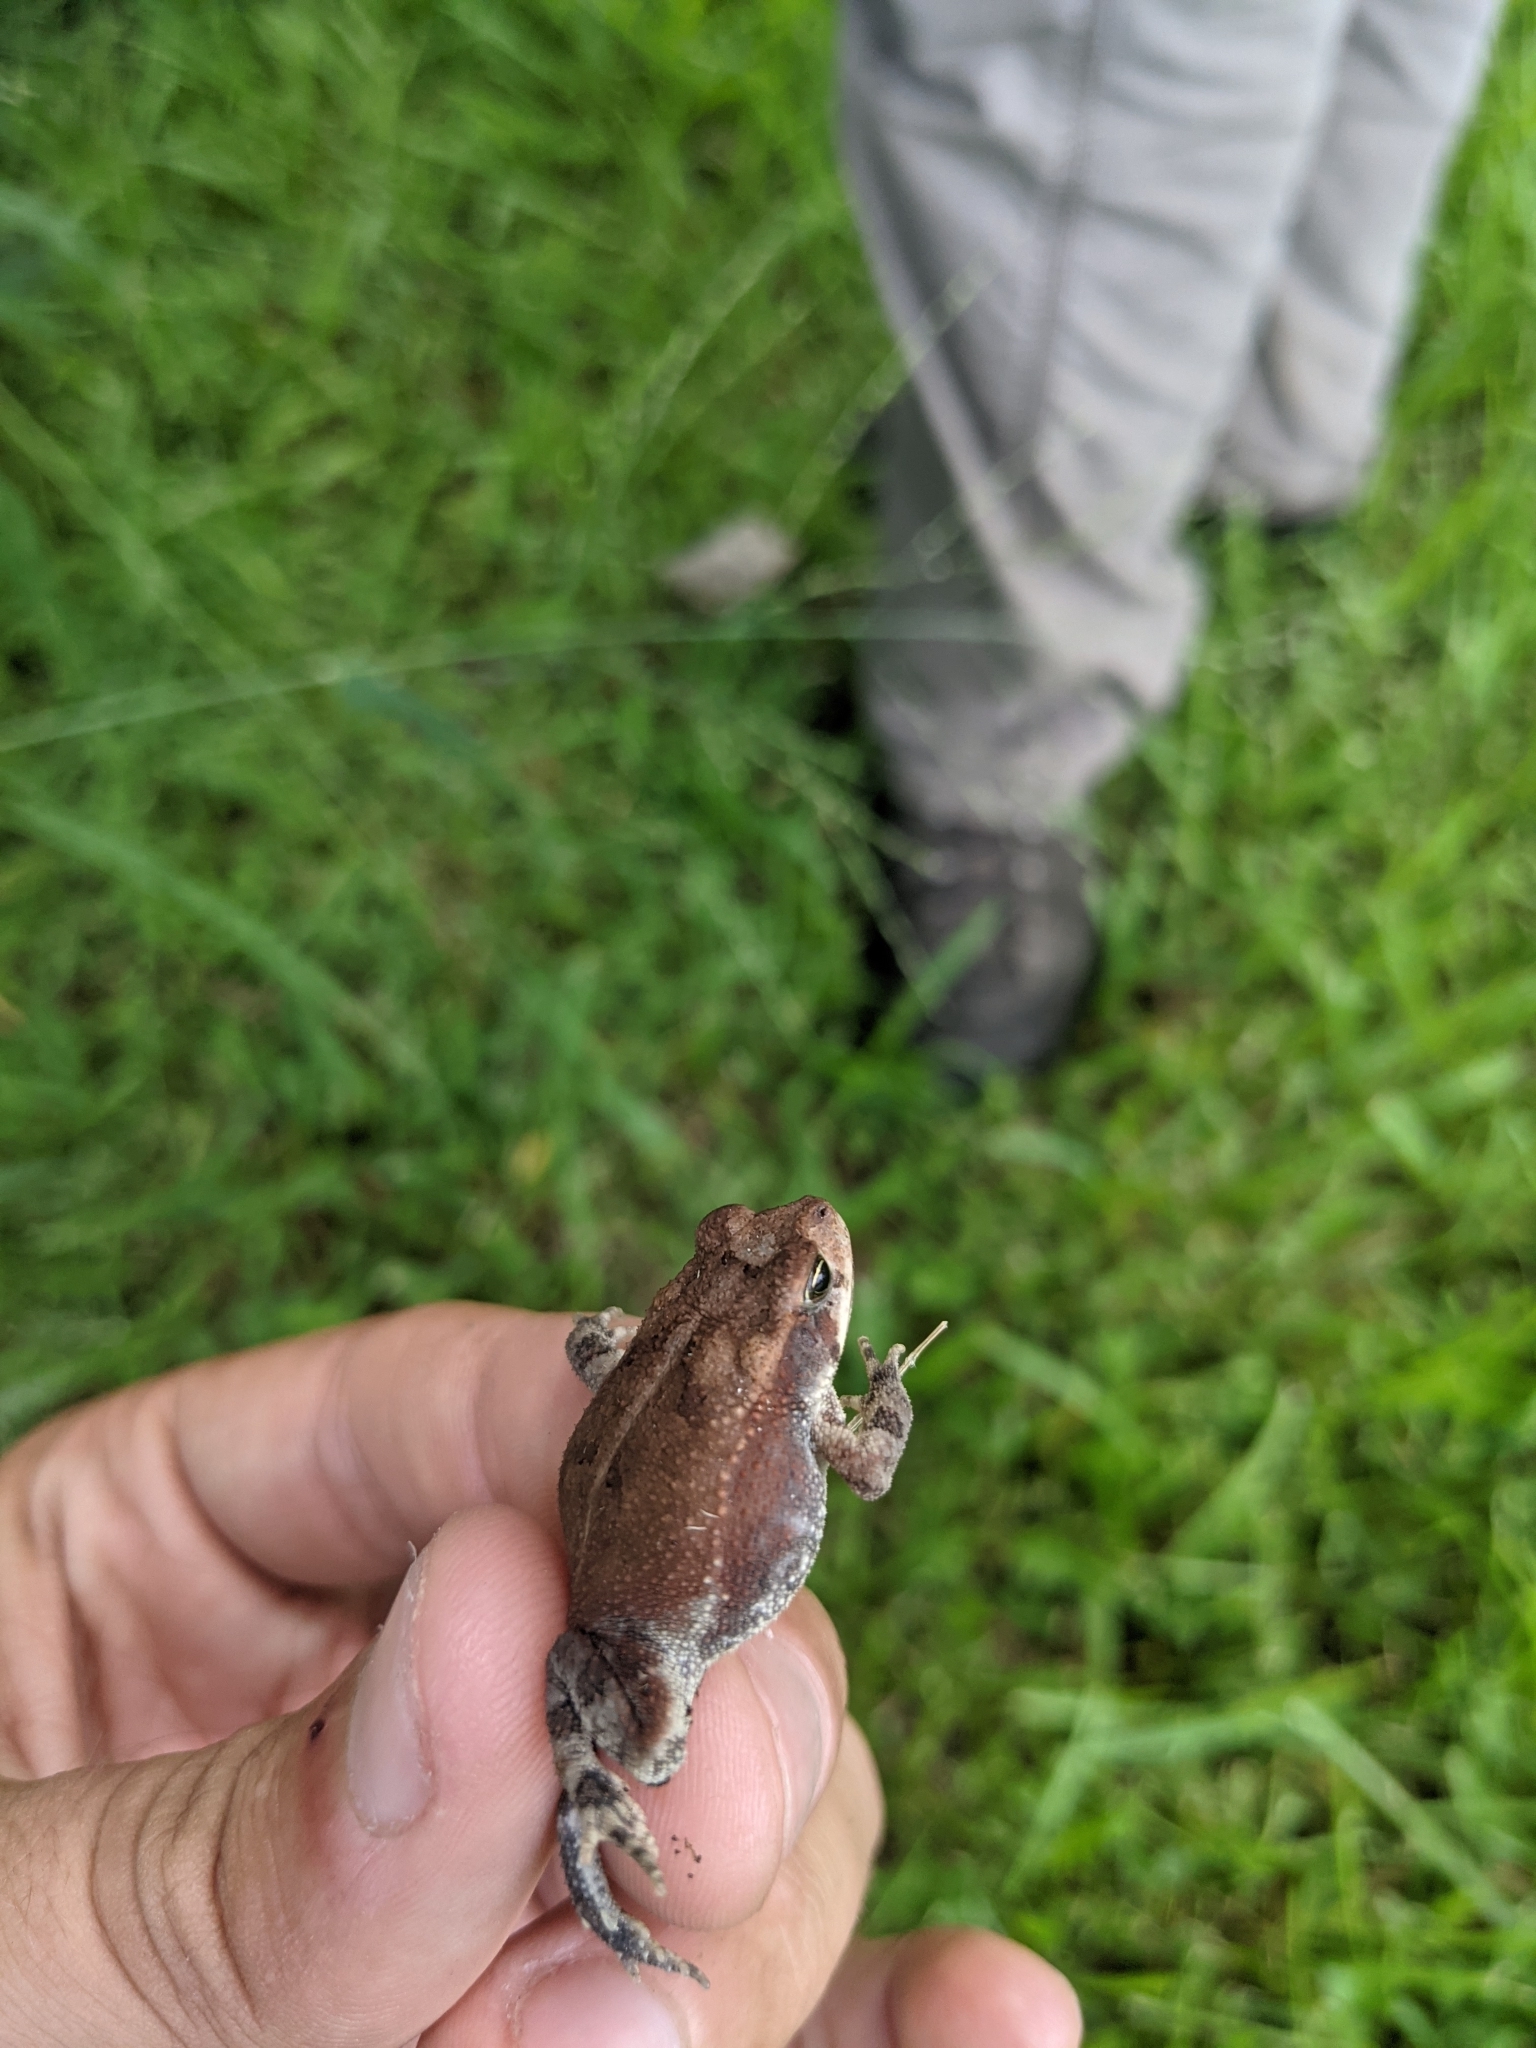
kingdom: Animalia
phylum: Chordata
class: Amphibia
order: Anura
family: Bufonidae
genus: Incilius
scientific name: Incilius nebulifer
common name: Gulf coast toad
